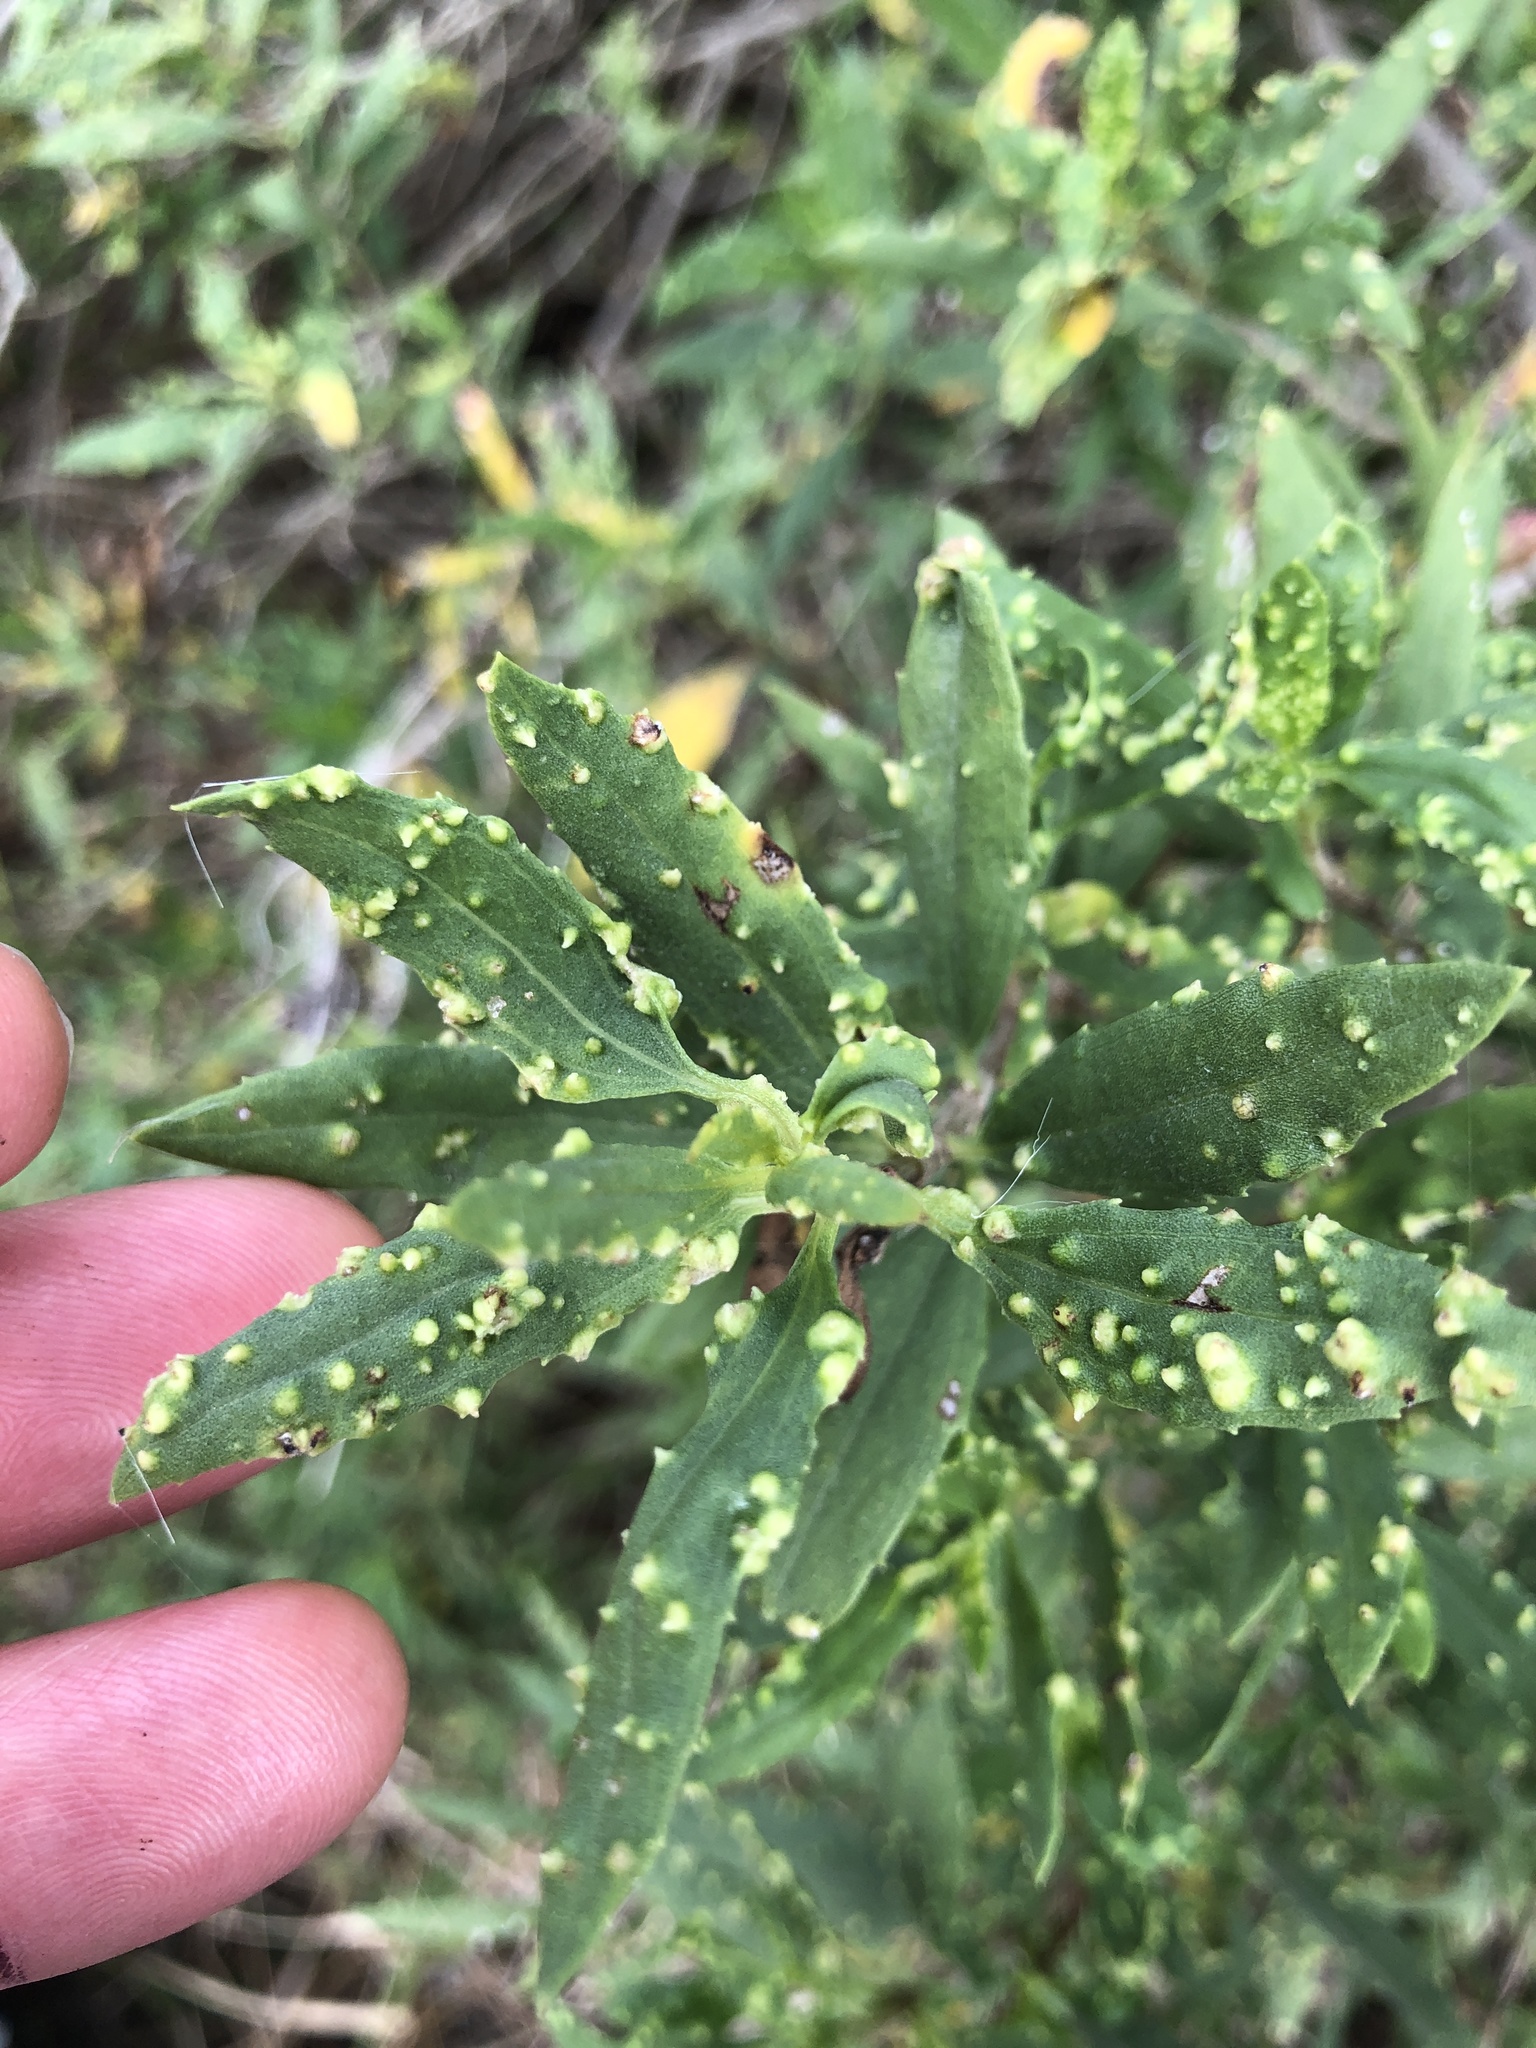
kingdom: Plantae
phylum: Tracheophyta
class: Magnoliopsida
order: Asterales
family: Asteraceae
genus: Iva
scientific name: Iva frutescens
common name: Big-leaved marsh-elder
